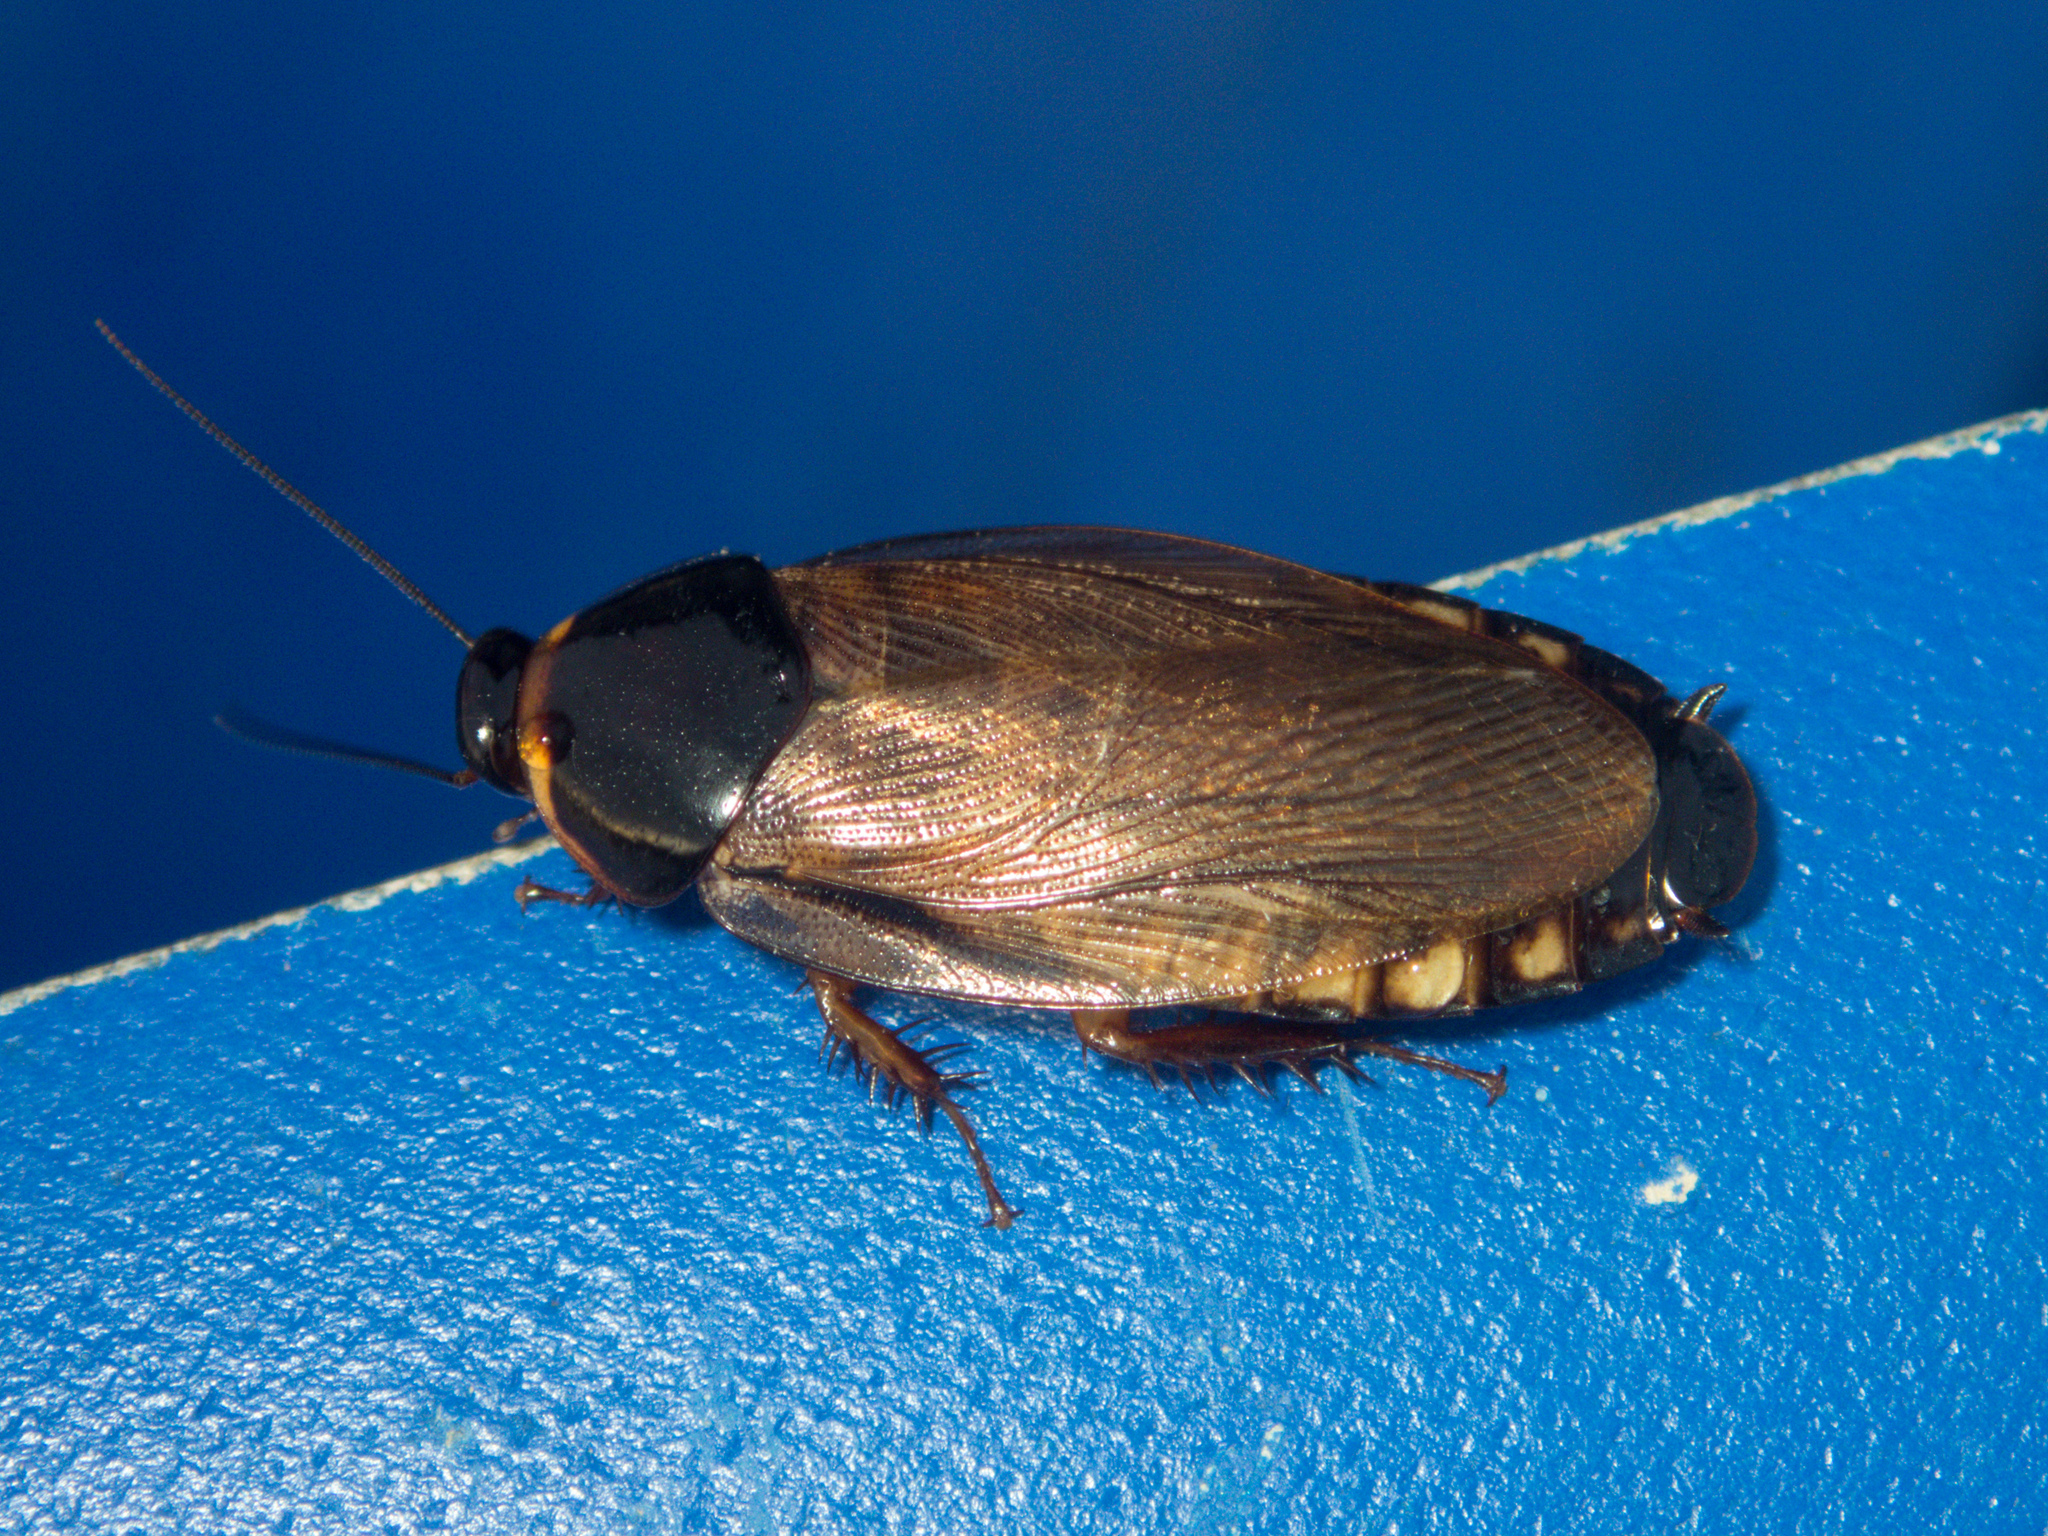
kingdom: Animalia
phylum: Arthropoda
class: Insecta
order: Blattodea
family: Blaberidae
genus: Pycnoscelus
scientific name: Pycnoscelus indicus
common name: Burrowing cockroach
